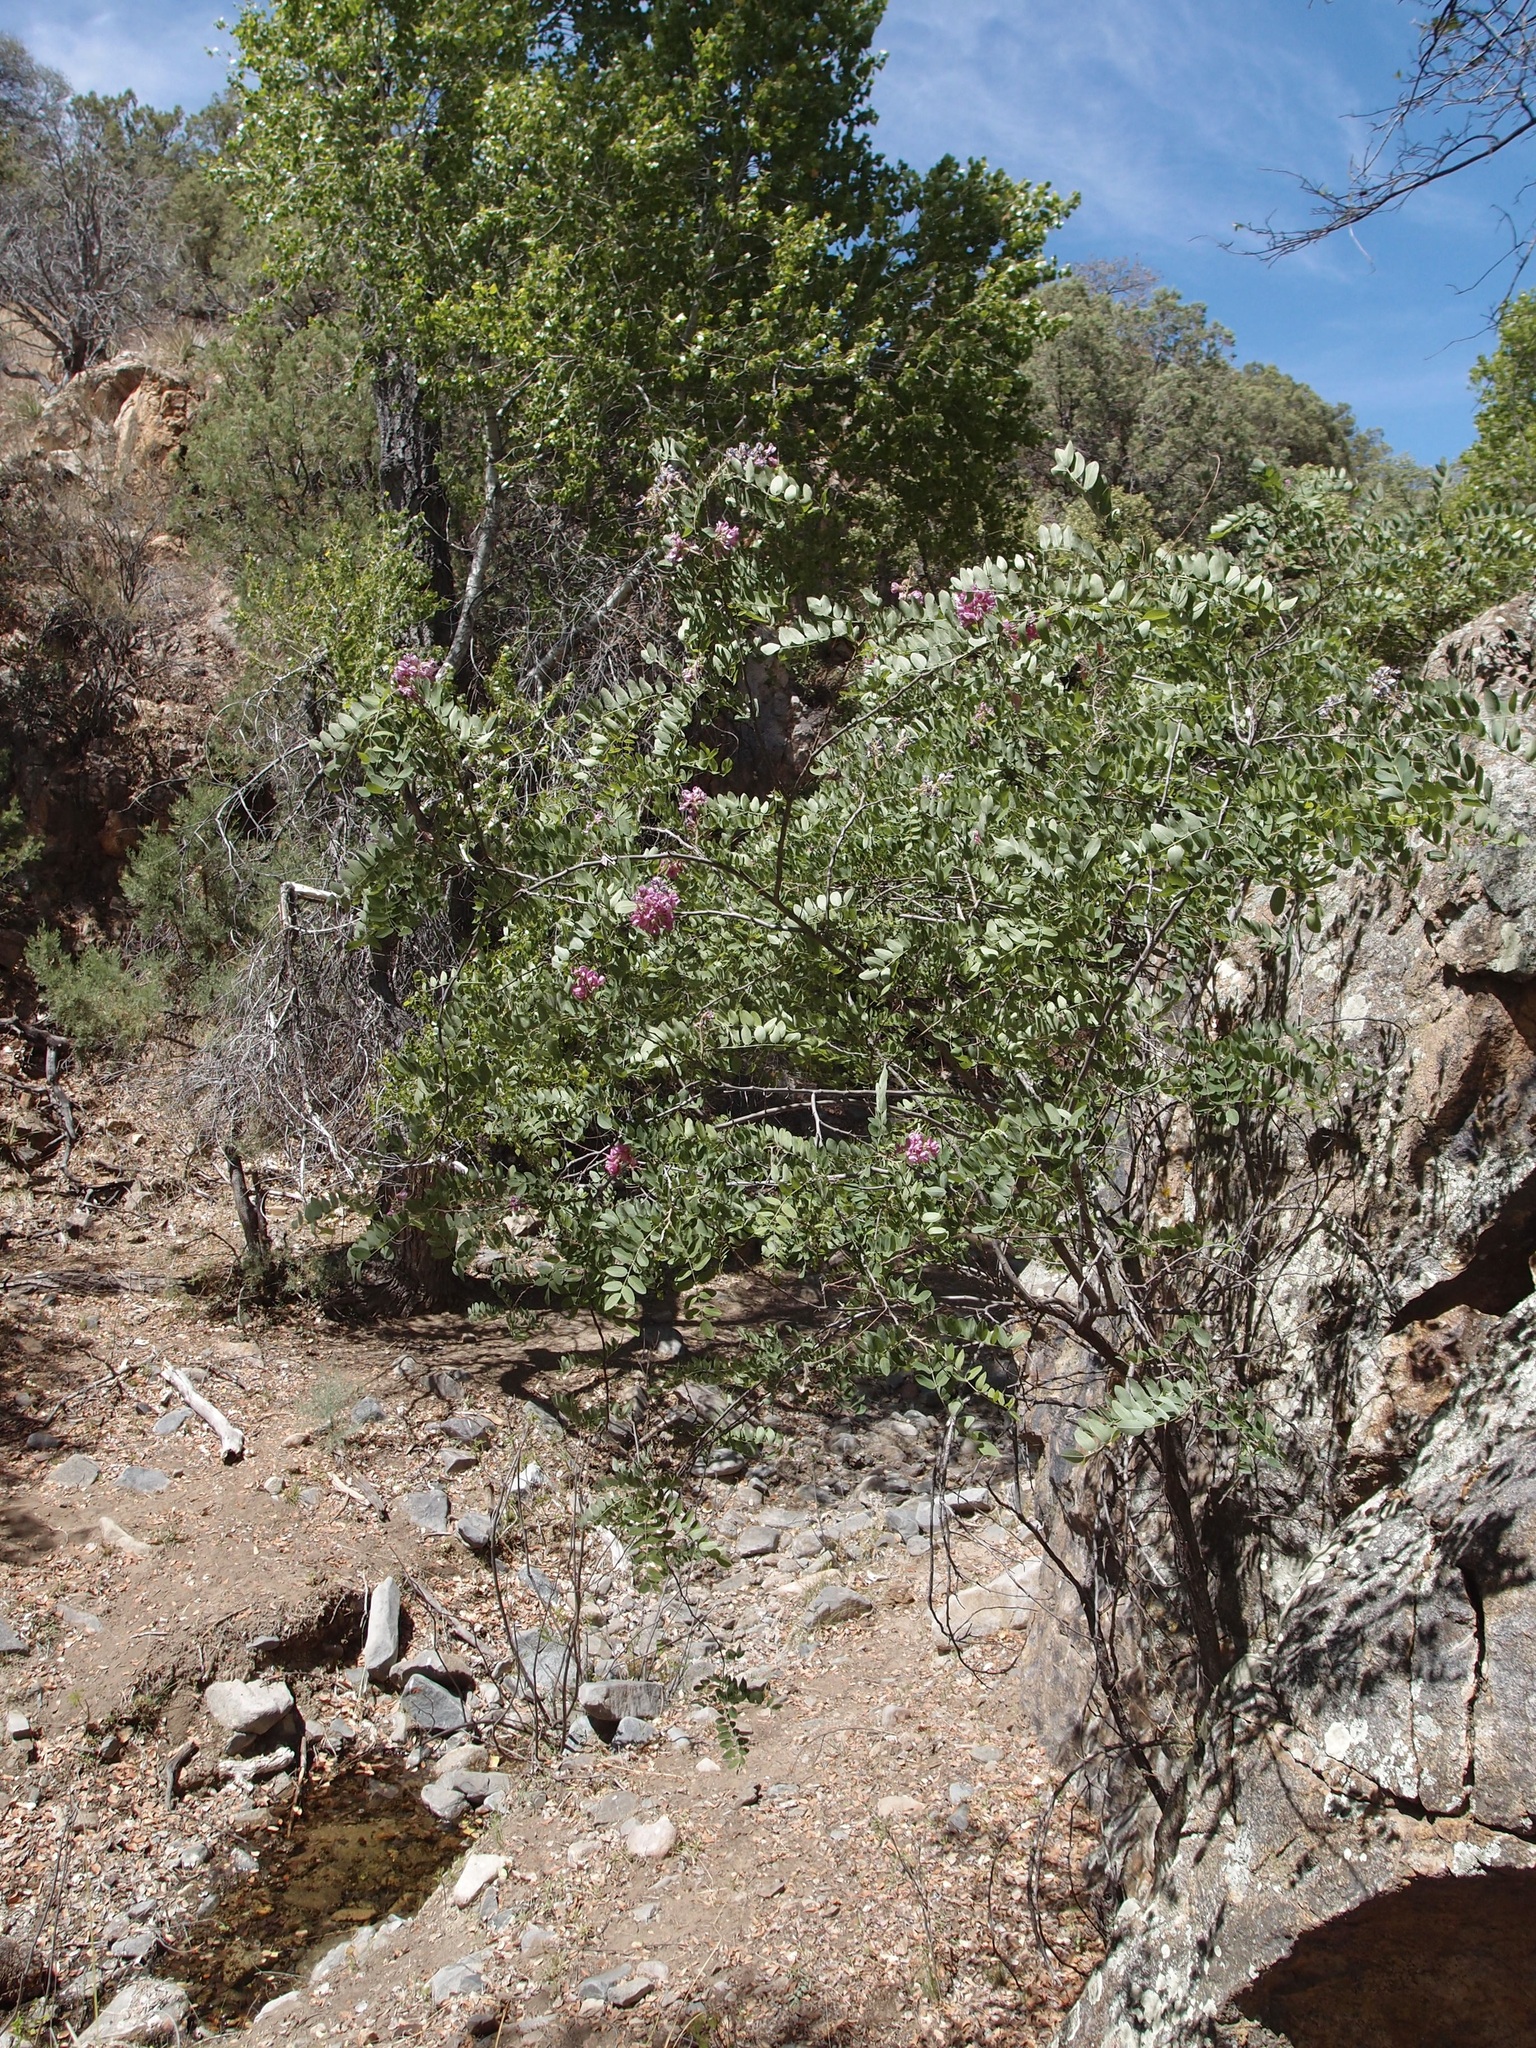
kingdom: Plantae
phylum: Tracheophyta
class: Magnoliopsida
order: Fabales
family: Fabaceae
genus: Robinia
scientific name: Robinia neomexicana
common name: New mexico locust
